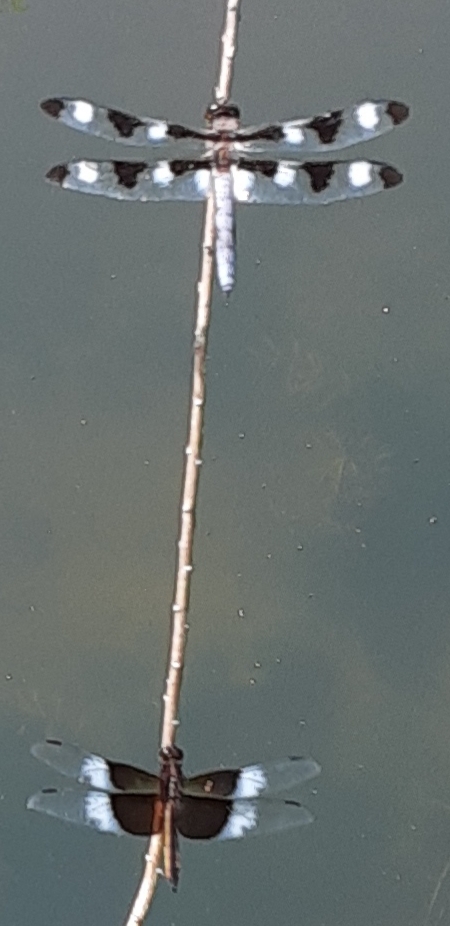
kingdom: Animalia
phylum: Arthropoda
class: Insecta
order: Odonata
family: Libellulidae
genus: Libellula
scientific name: Libellula pulchella
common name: Twelve-spotted skimmer
